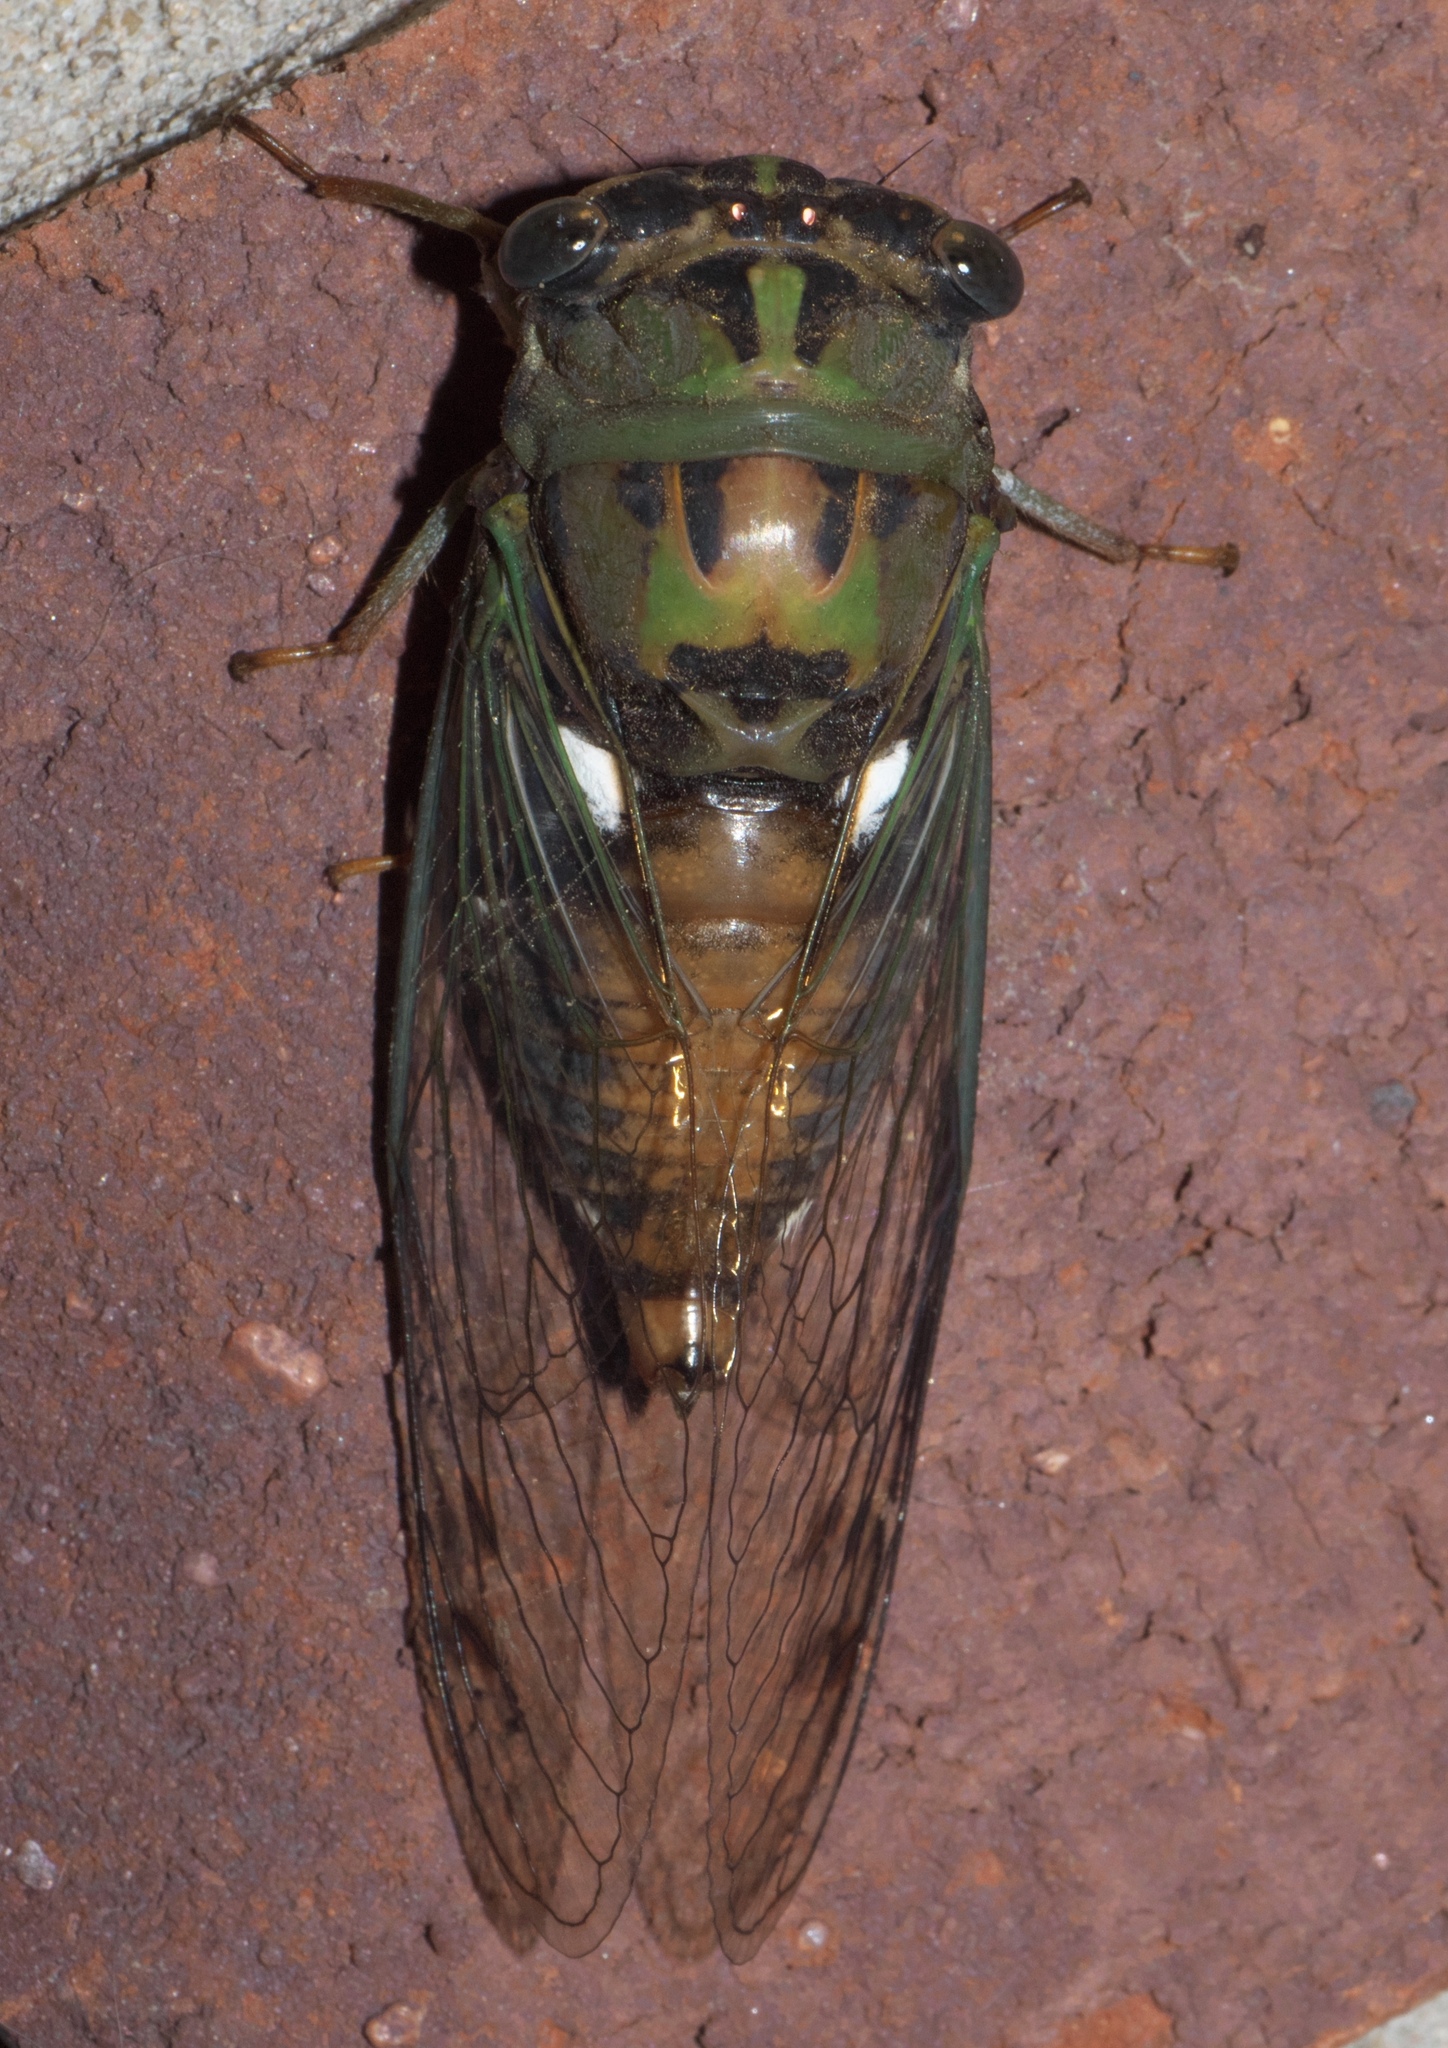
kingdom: Animalia
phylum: Arthropoda
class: Insecta
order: Hemiptera
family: Cicadidae
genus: Neotibicen
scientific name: Neotibicen pruinosus
